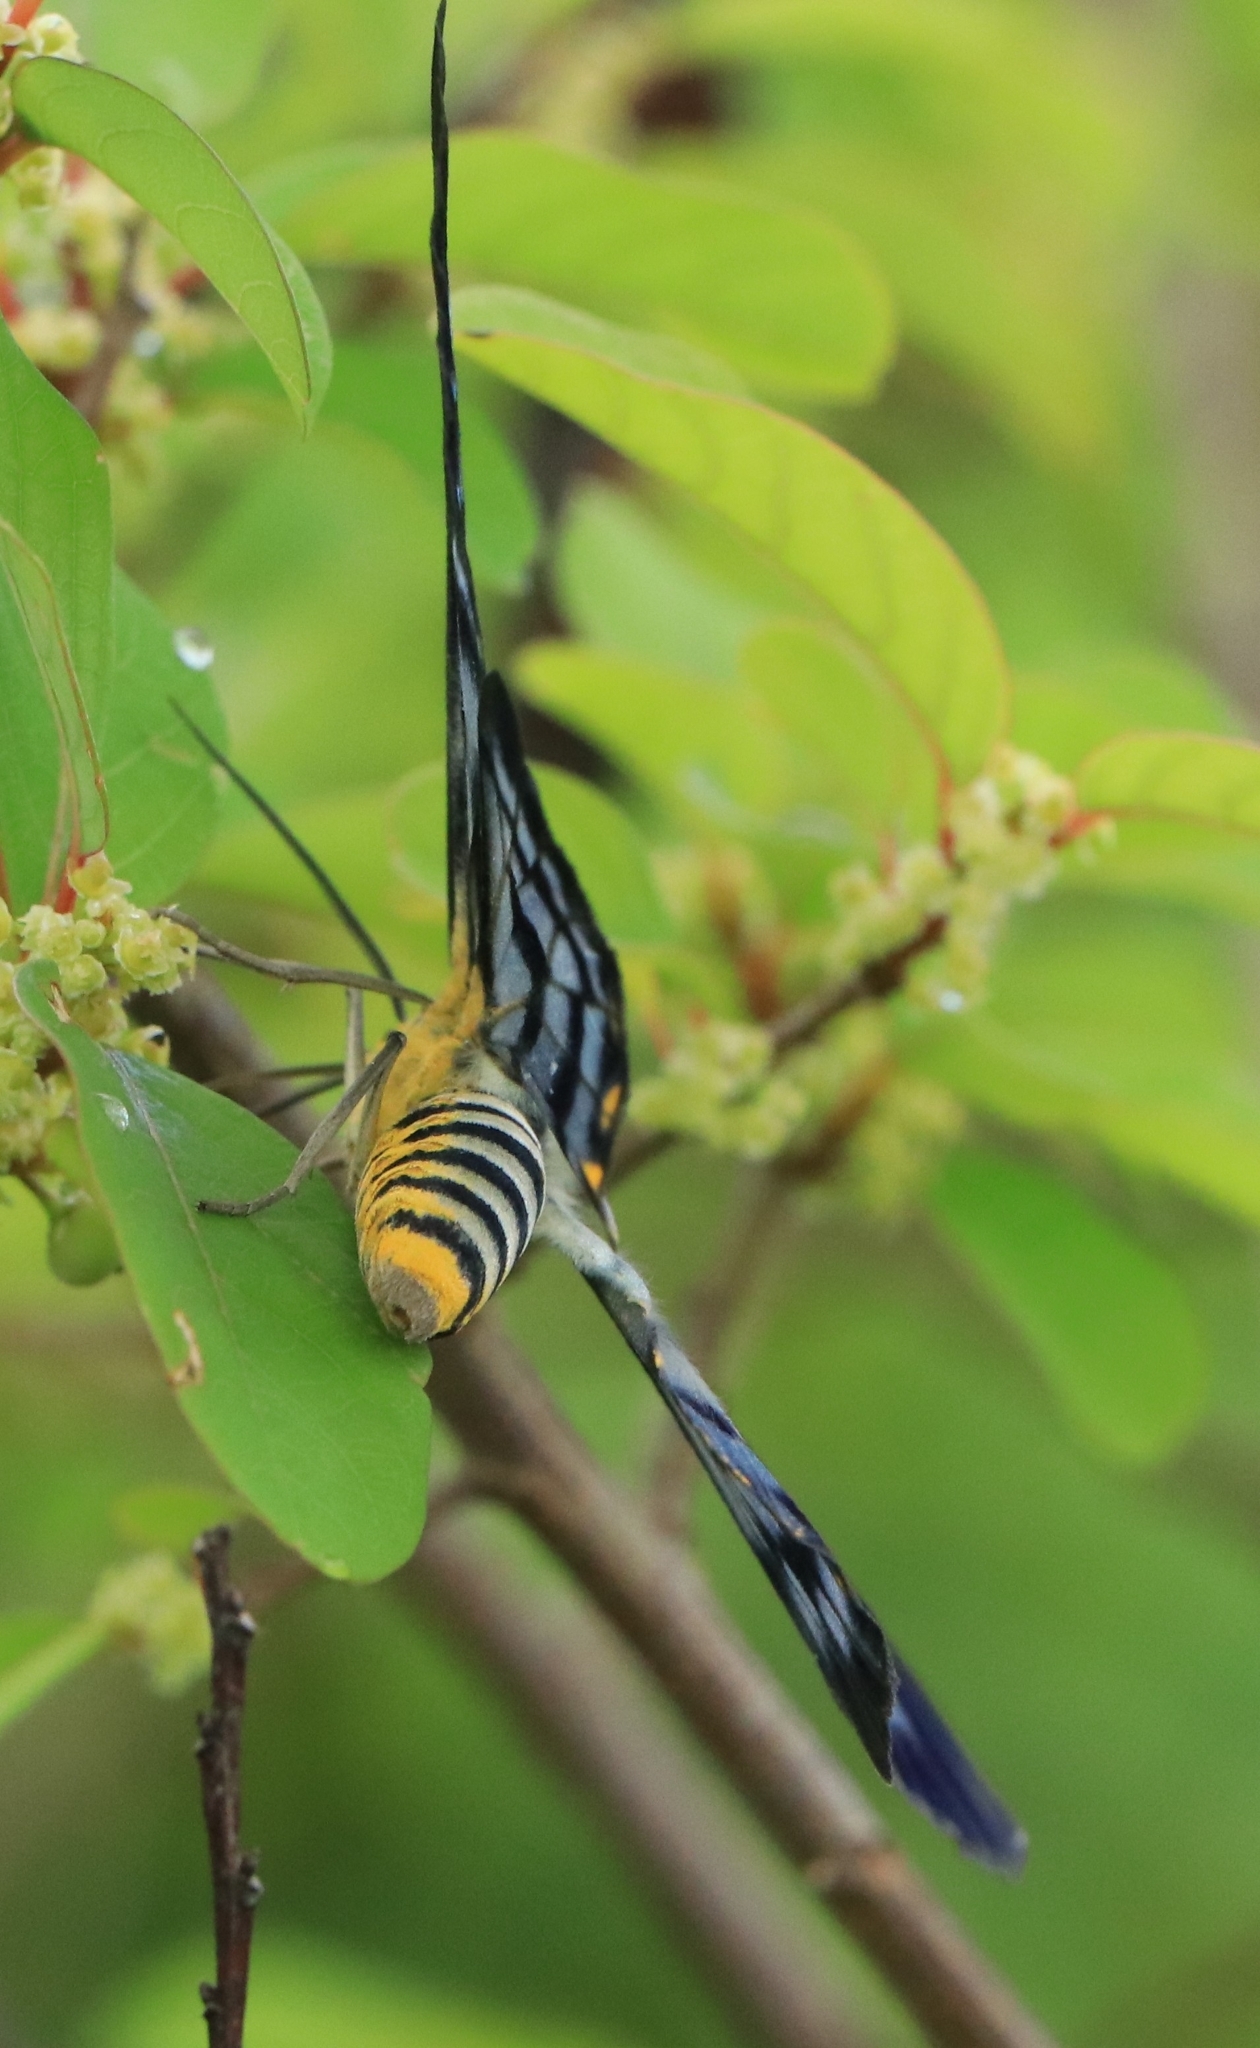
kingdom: Animalia
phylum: Arthropoda
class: Insecta
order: Lepidoptera
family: Geometridae
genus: Dysphania
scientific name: Dysphania nelera
